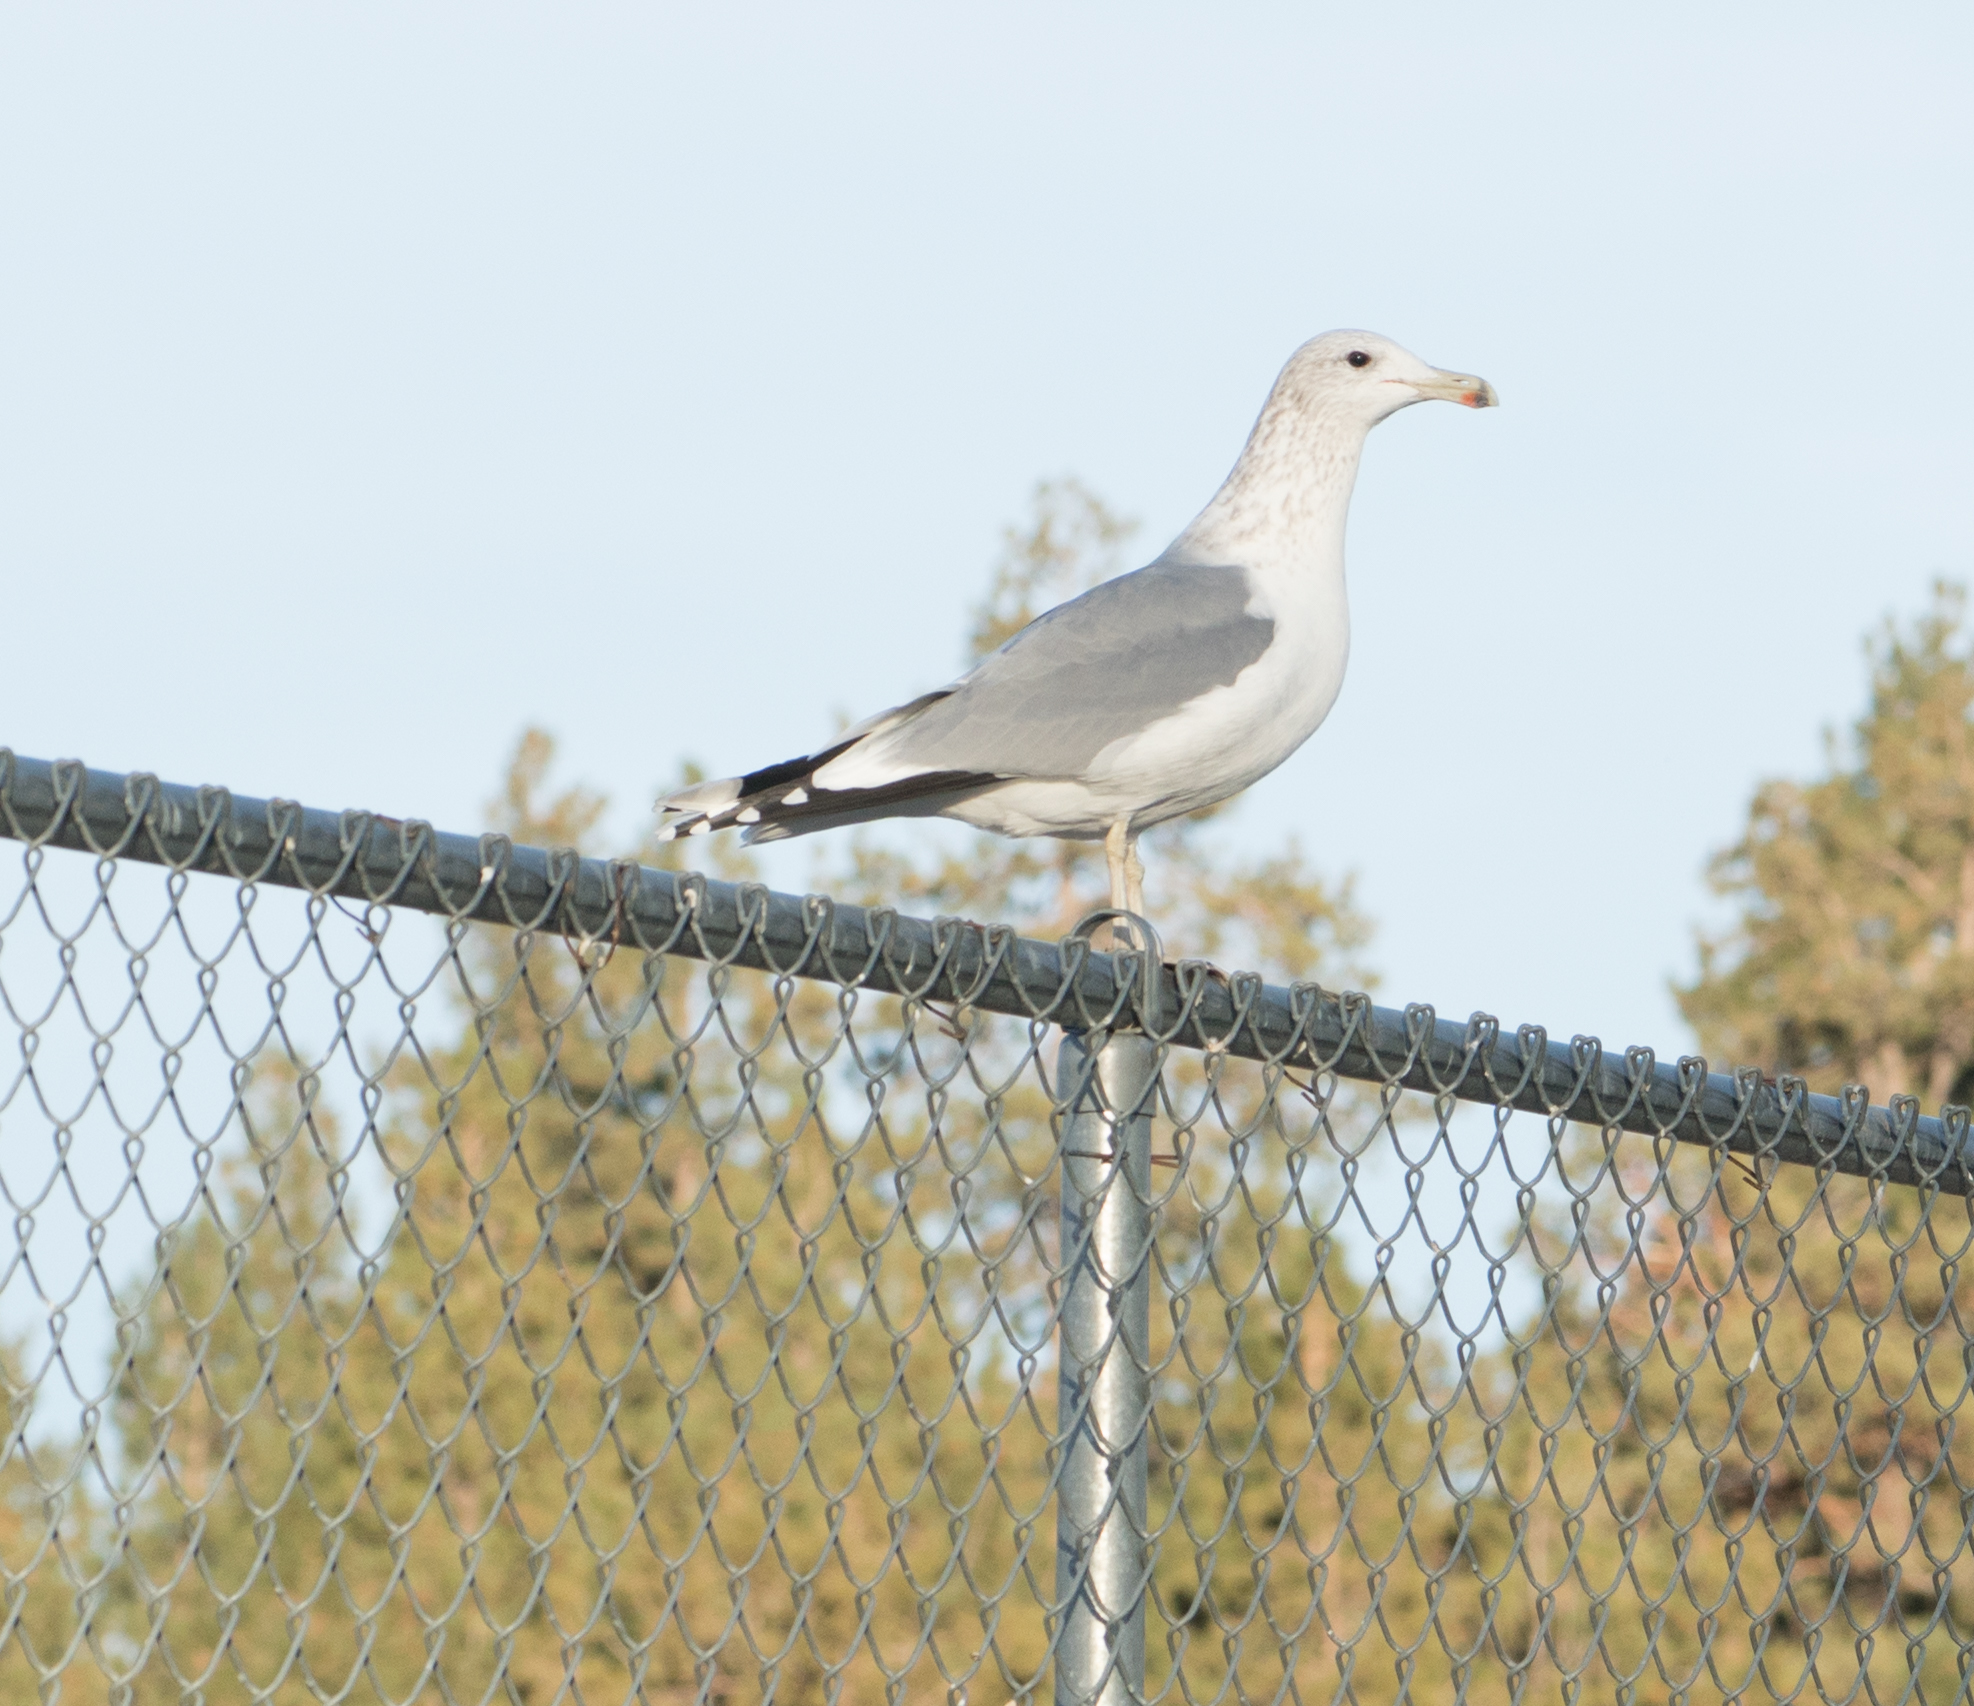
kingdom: Animalia
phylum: Chordata
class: Aves
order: Charadriiformes
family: Laridae
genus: Larus
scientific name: Larus californicus
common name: California gull
